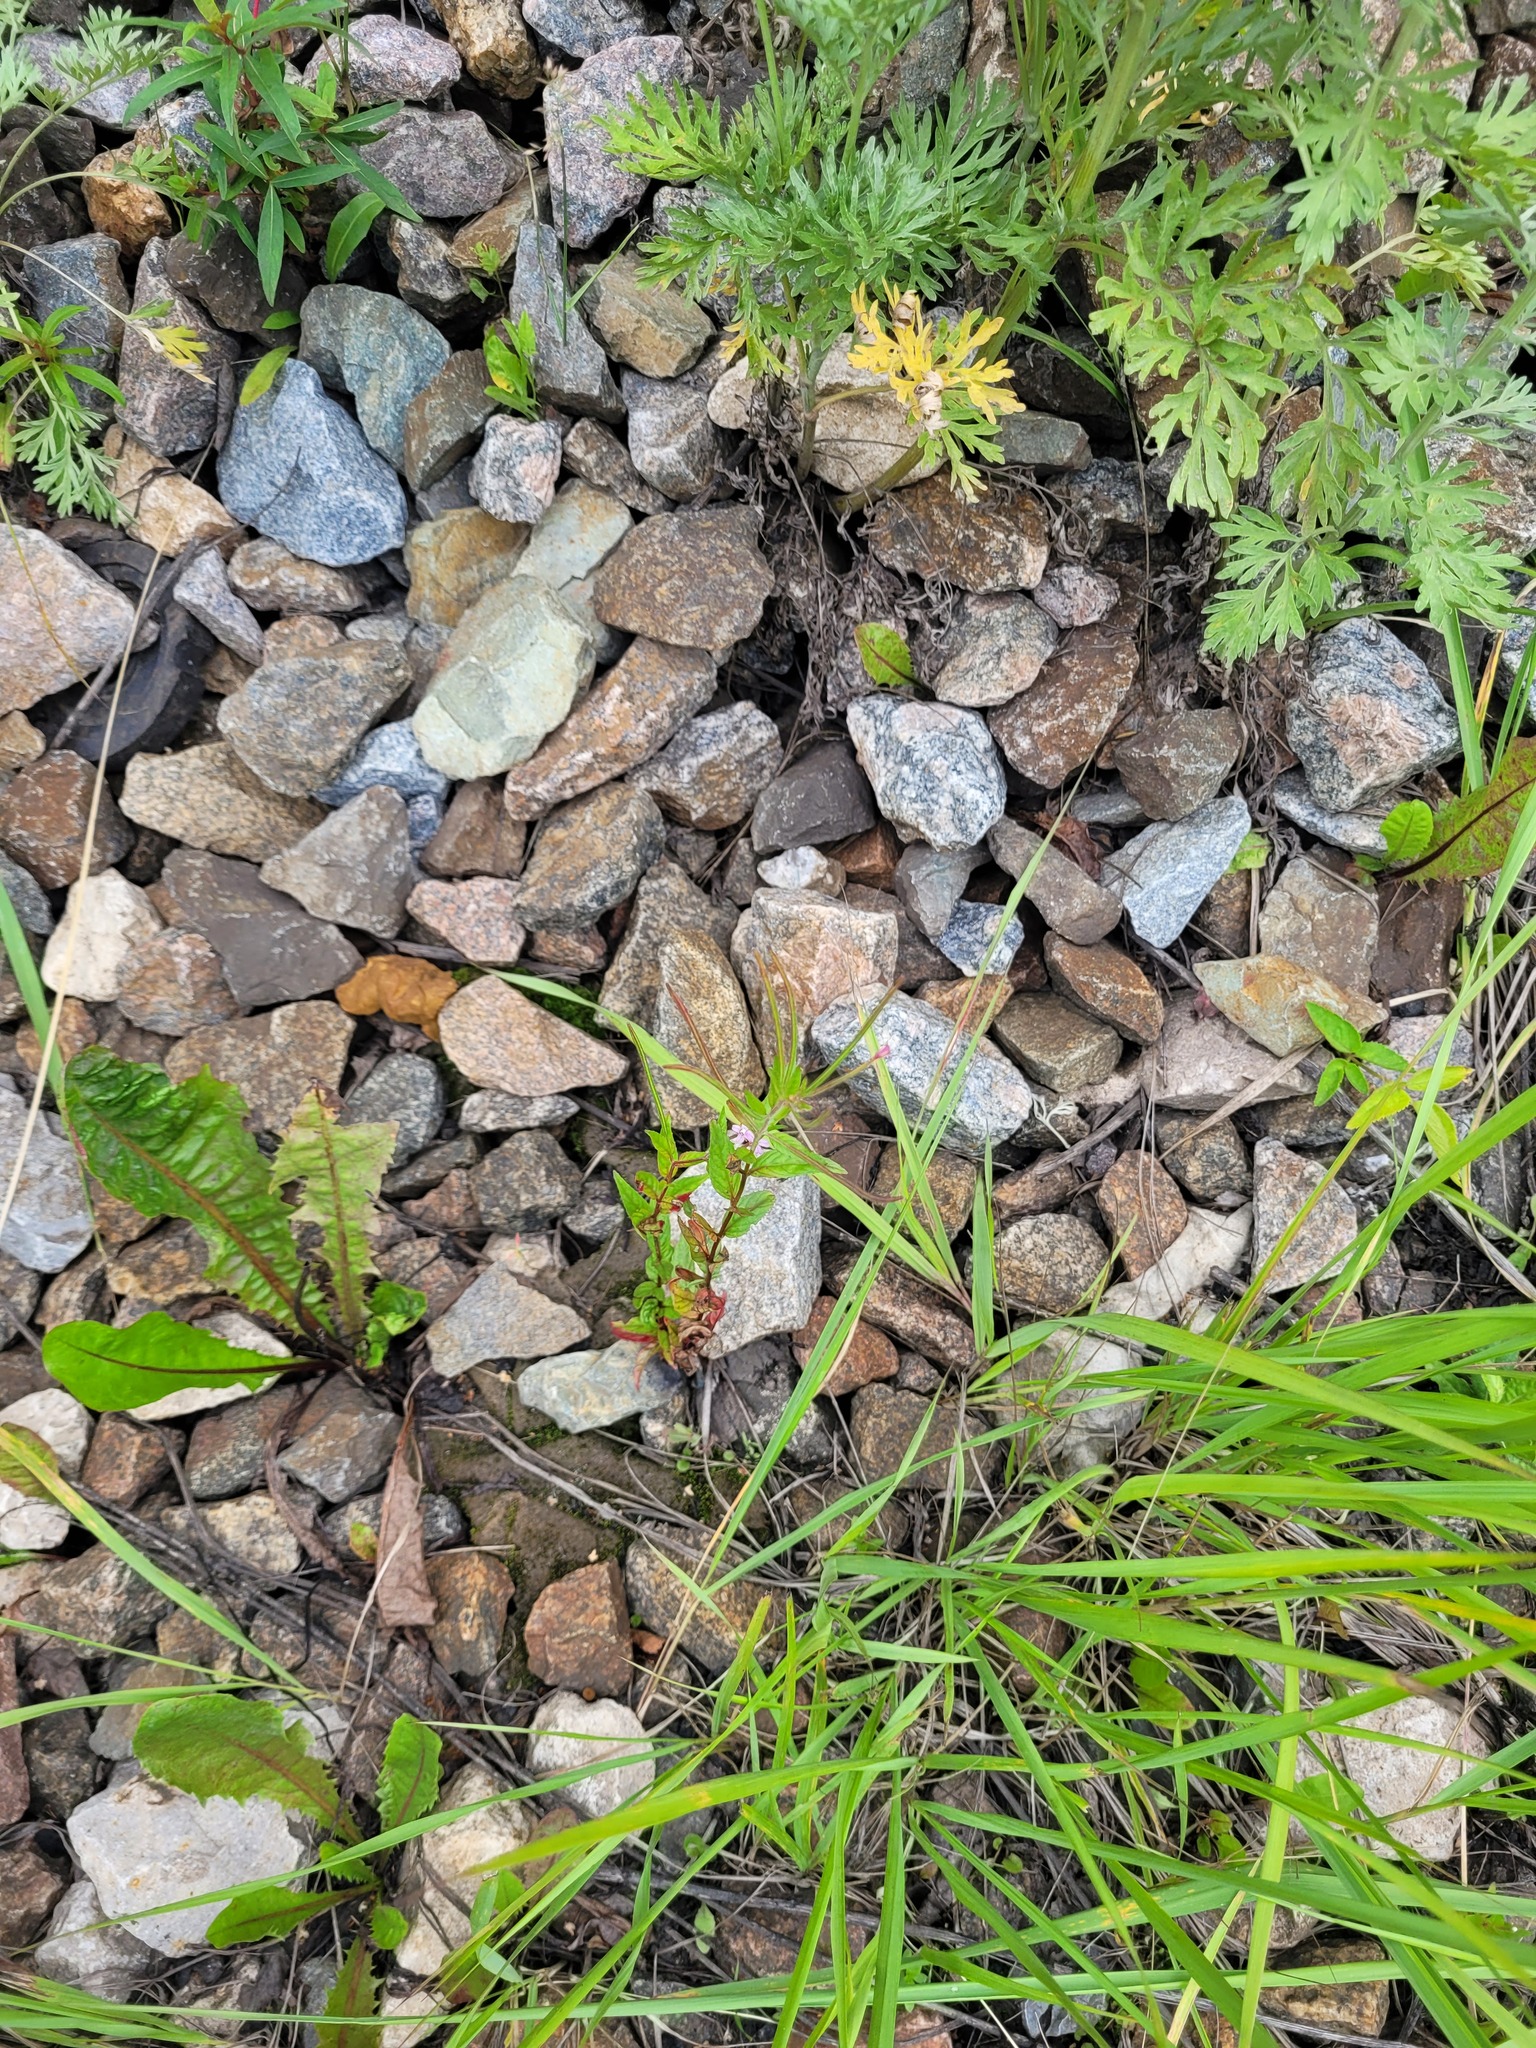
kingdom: Plantae
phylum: Tracheophyta
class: Magnoliopsida
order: Myrtales
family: Onagraceae
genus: Epilobium
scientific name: Epilobium ciliatum
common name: American willowherb
